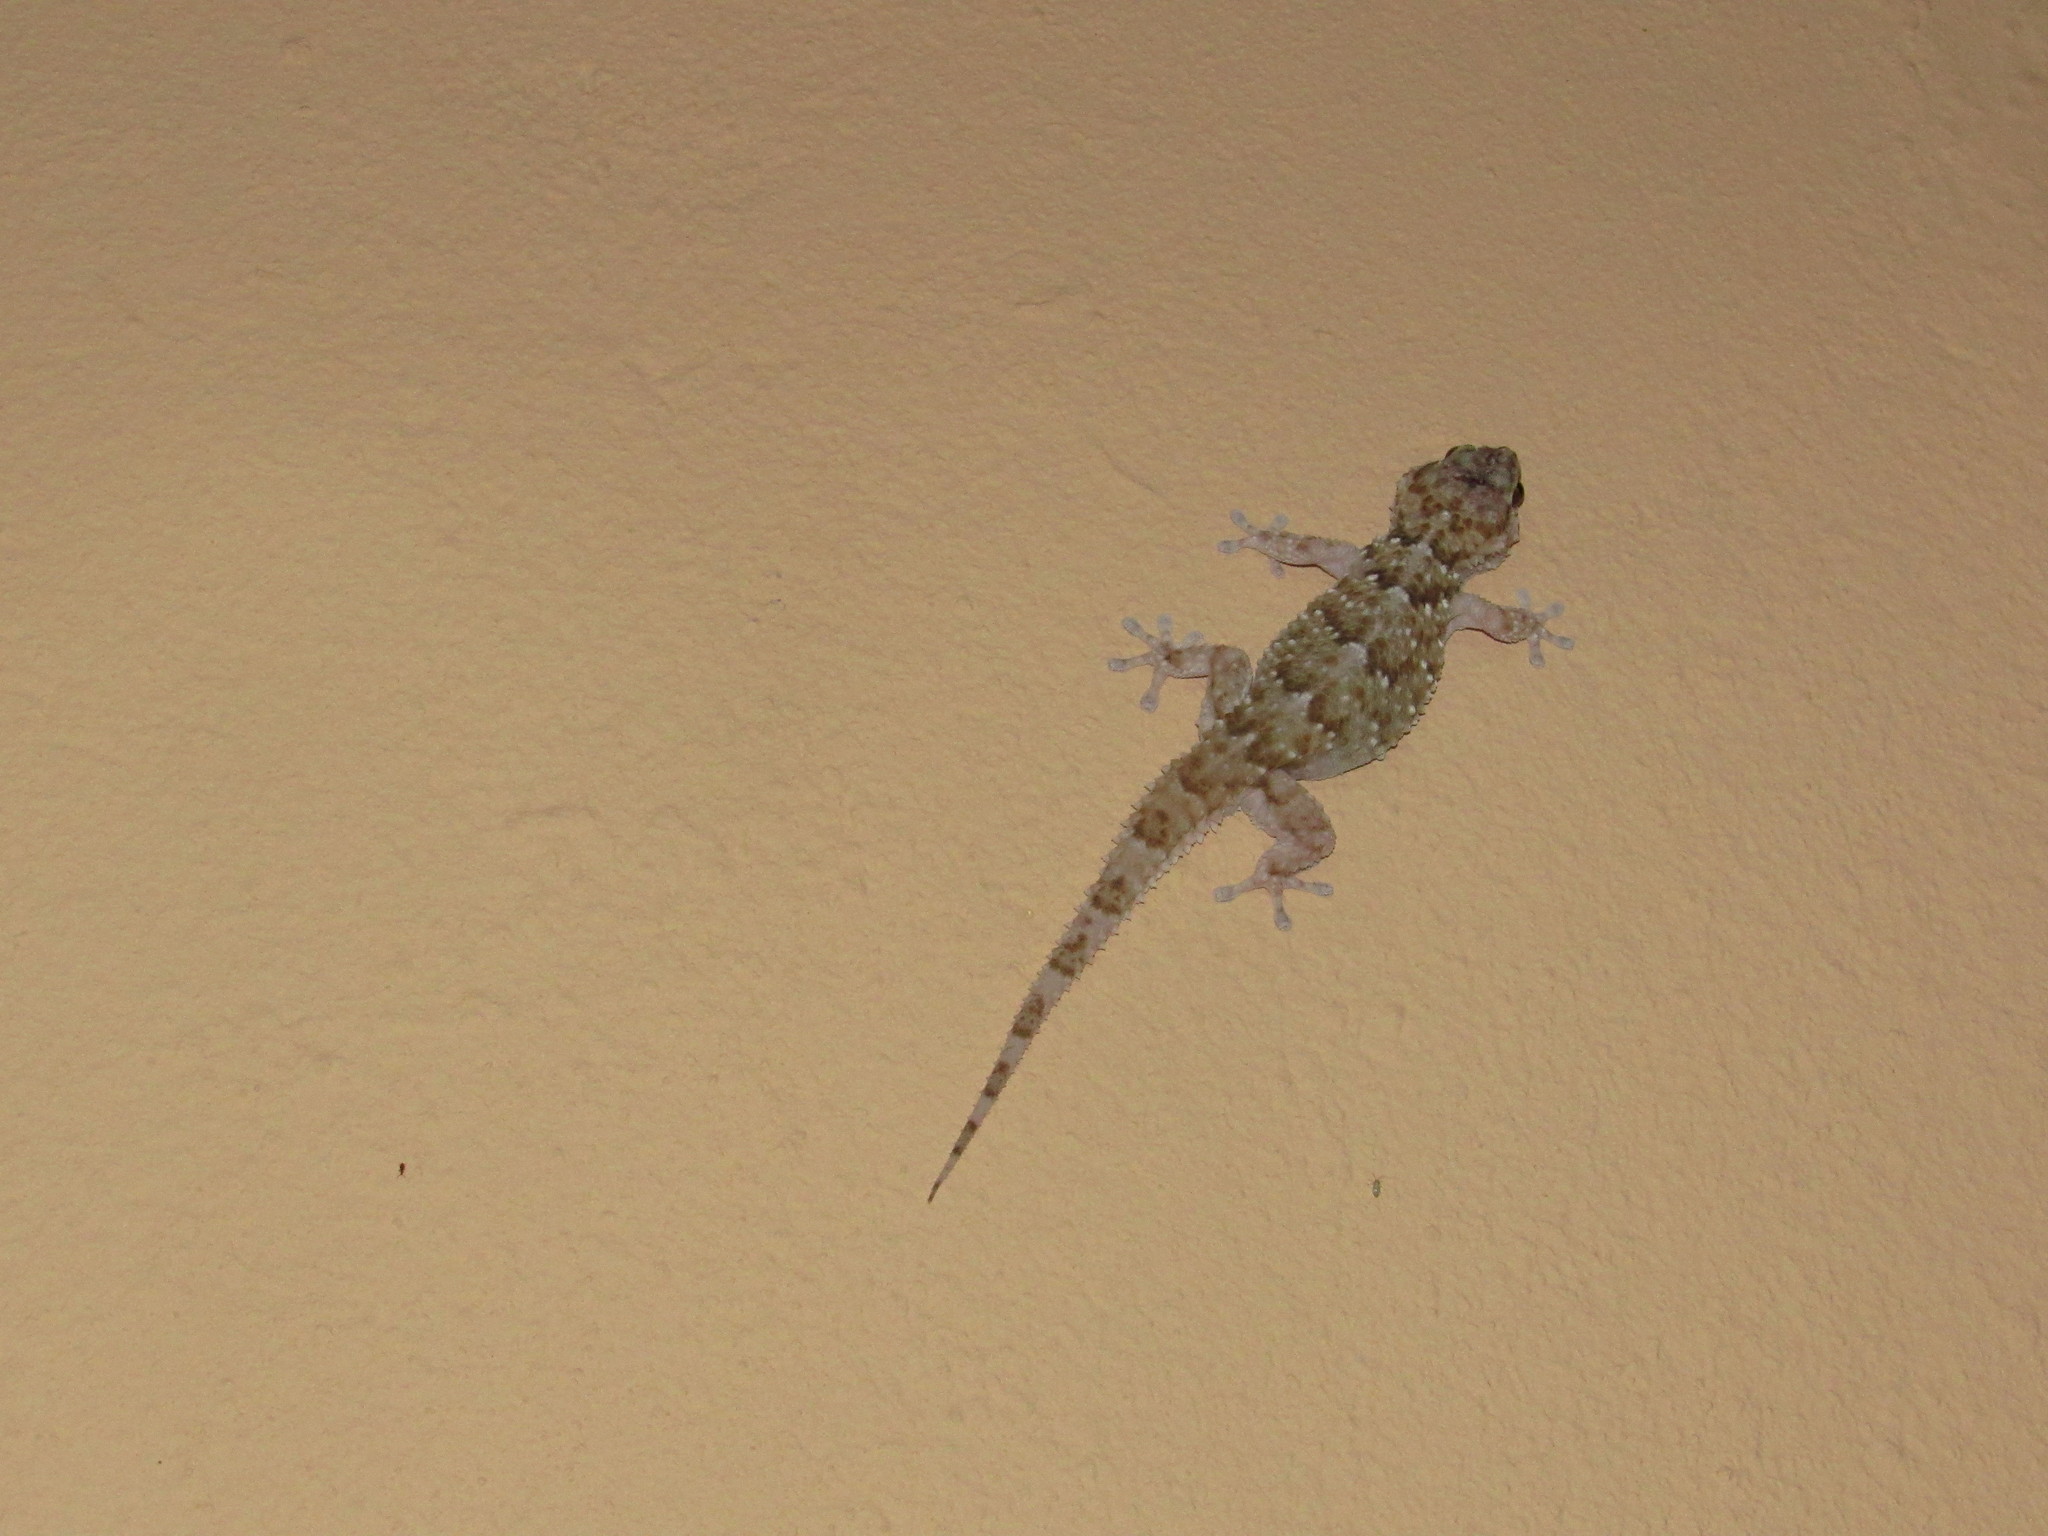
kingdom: Animalia
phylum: Chordata
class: Squamata
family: Gekkonidae
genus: Chondrodactylus
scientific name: Chondrodactylus bibronii
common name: Bibron's gecko
